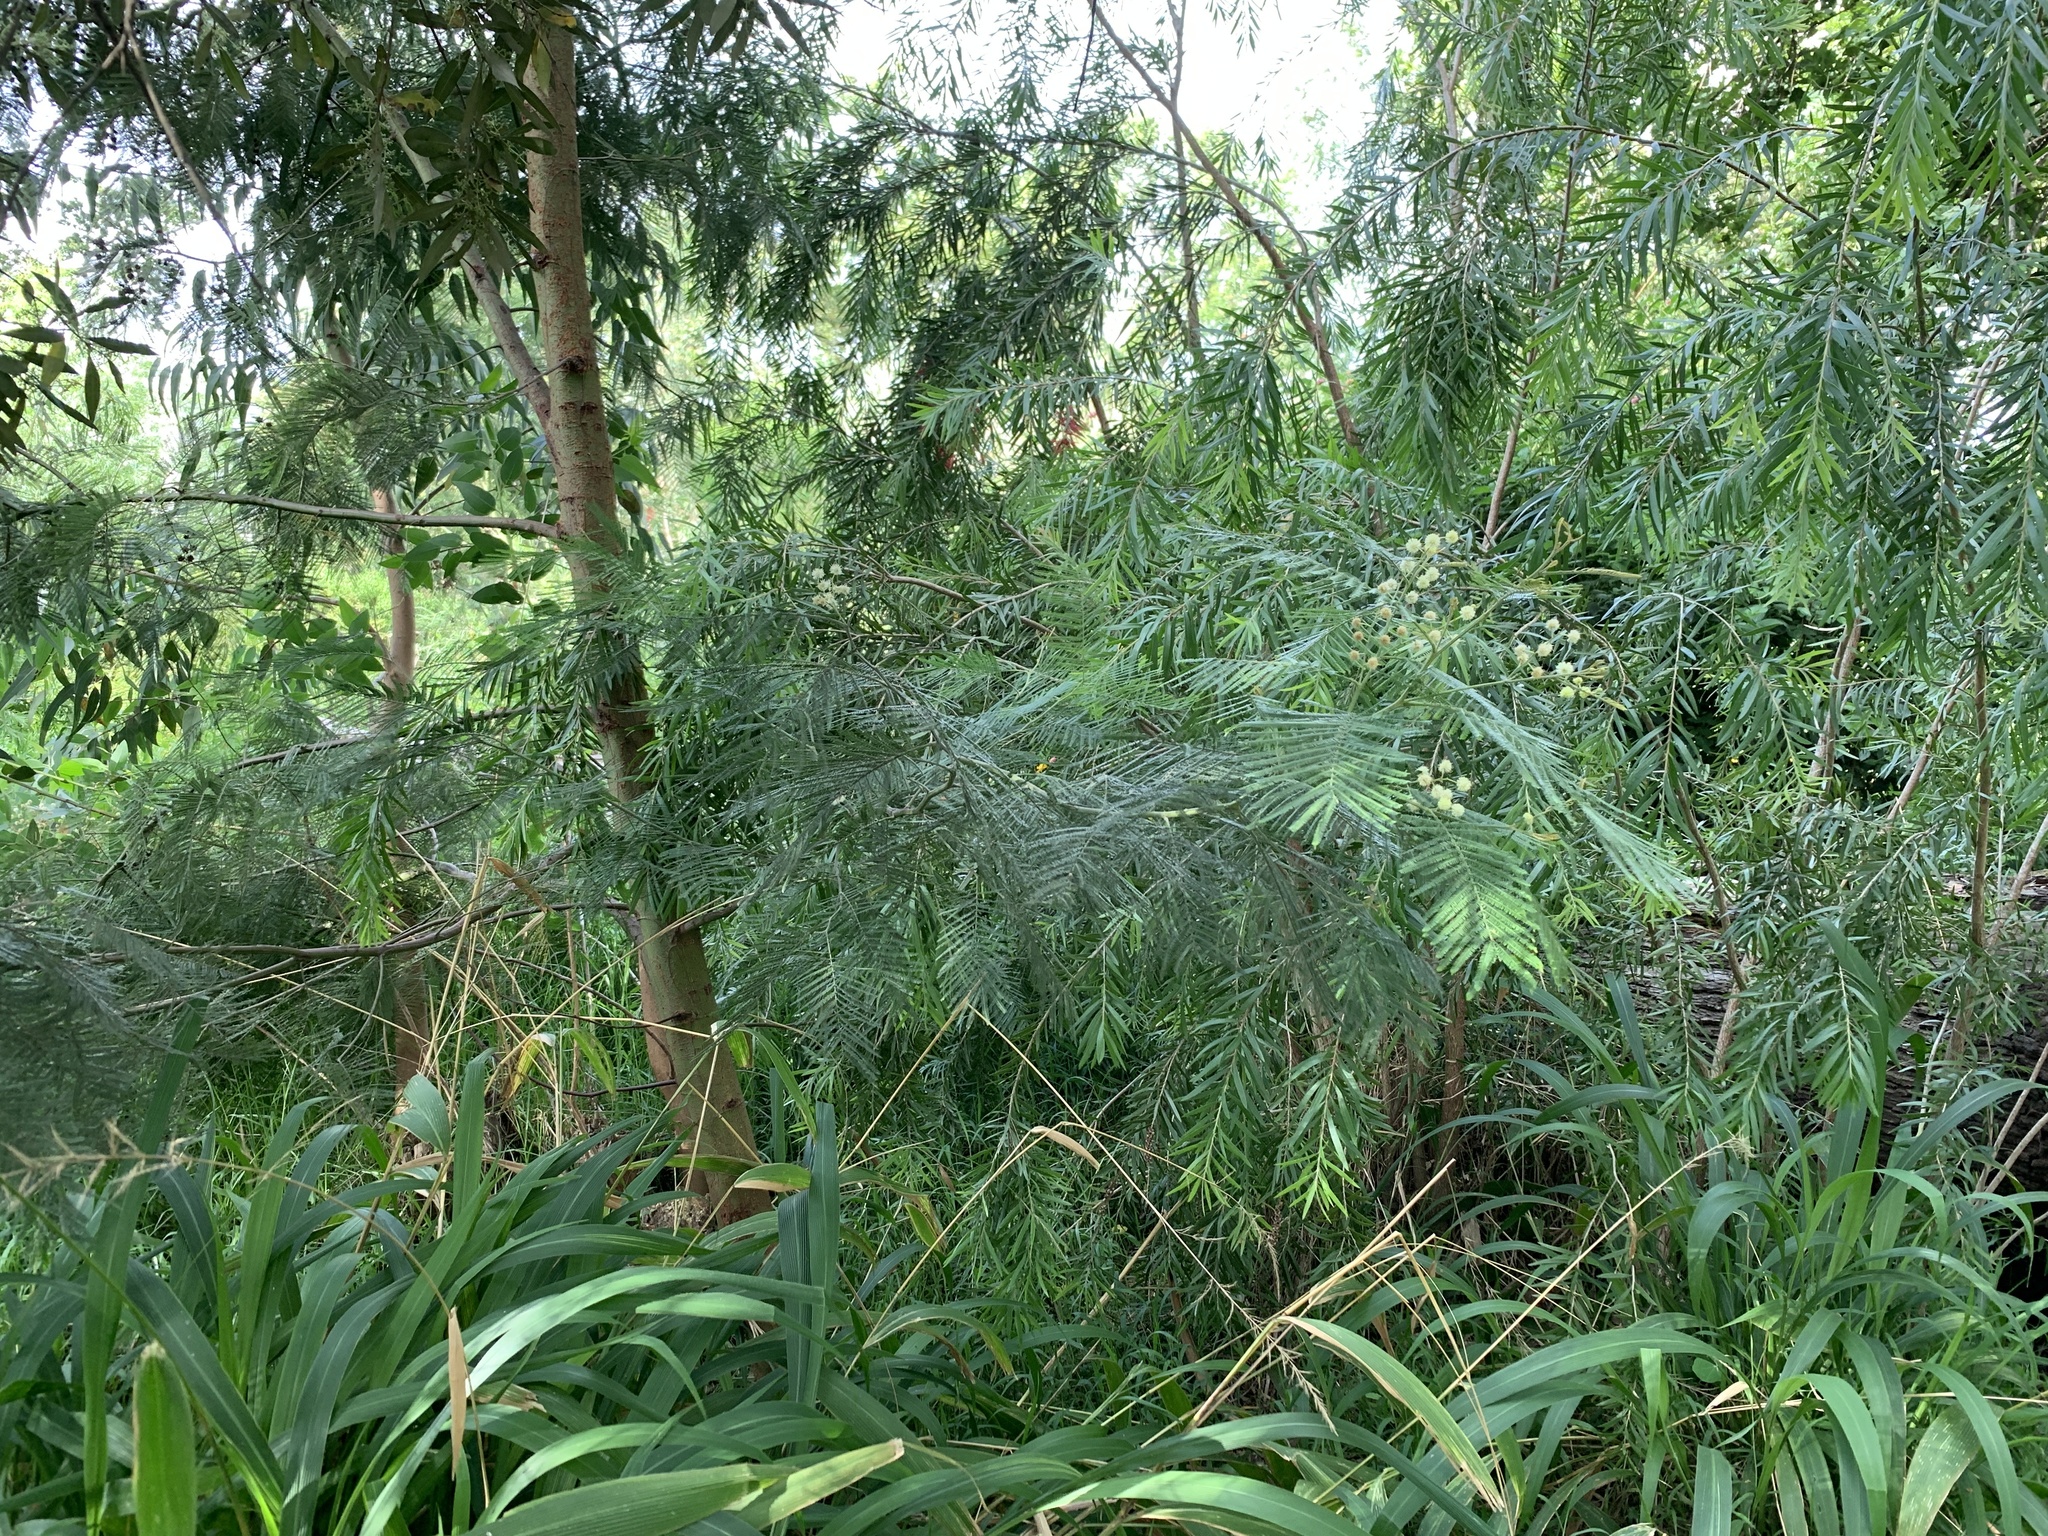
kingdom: Plantae
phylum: Tracheophyta
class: Magnoliopsida
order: Fabales
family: Fabaceae
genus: Acacia
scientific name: Acacia mearnsii
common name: Black wattle
